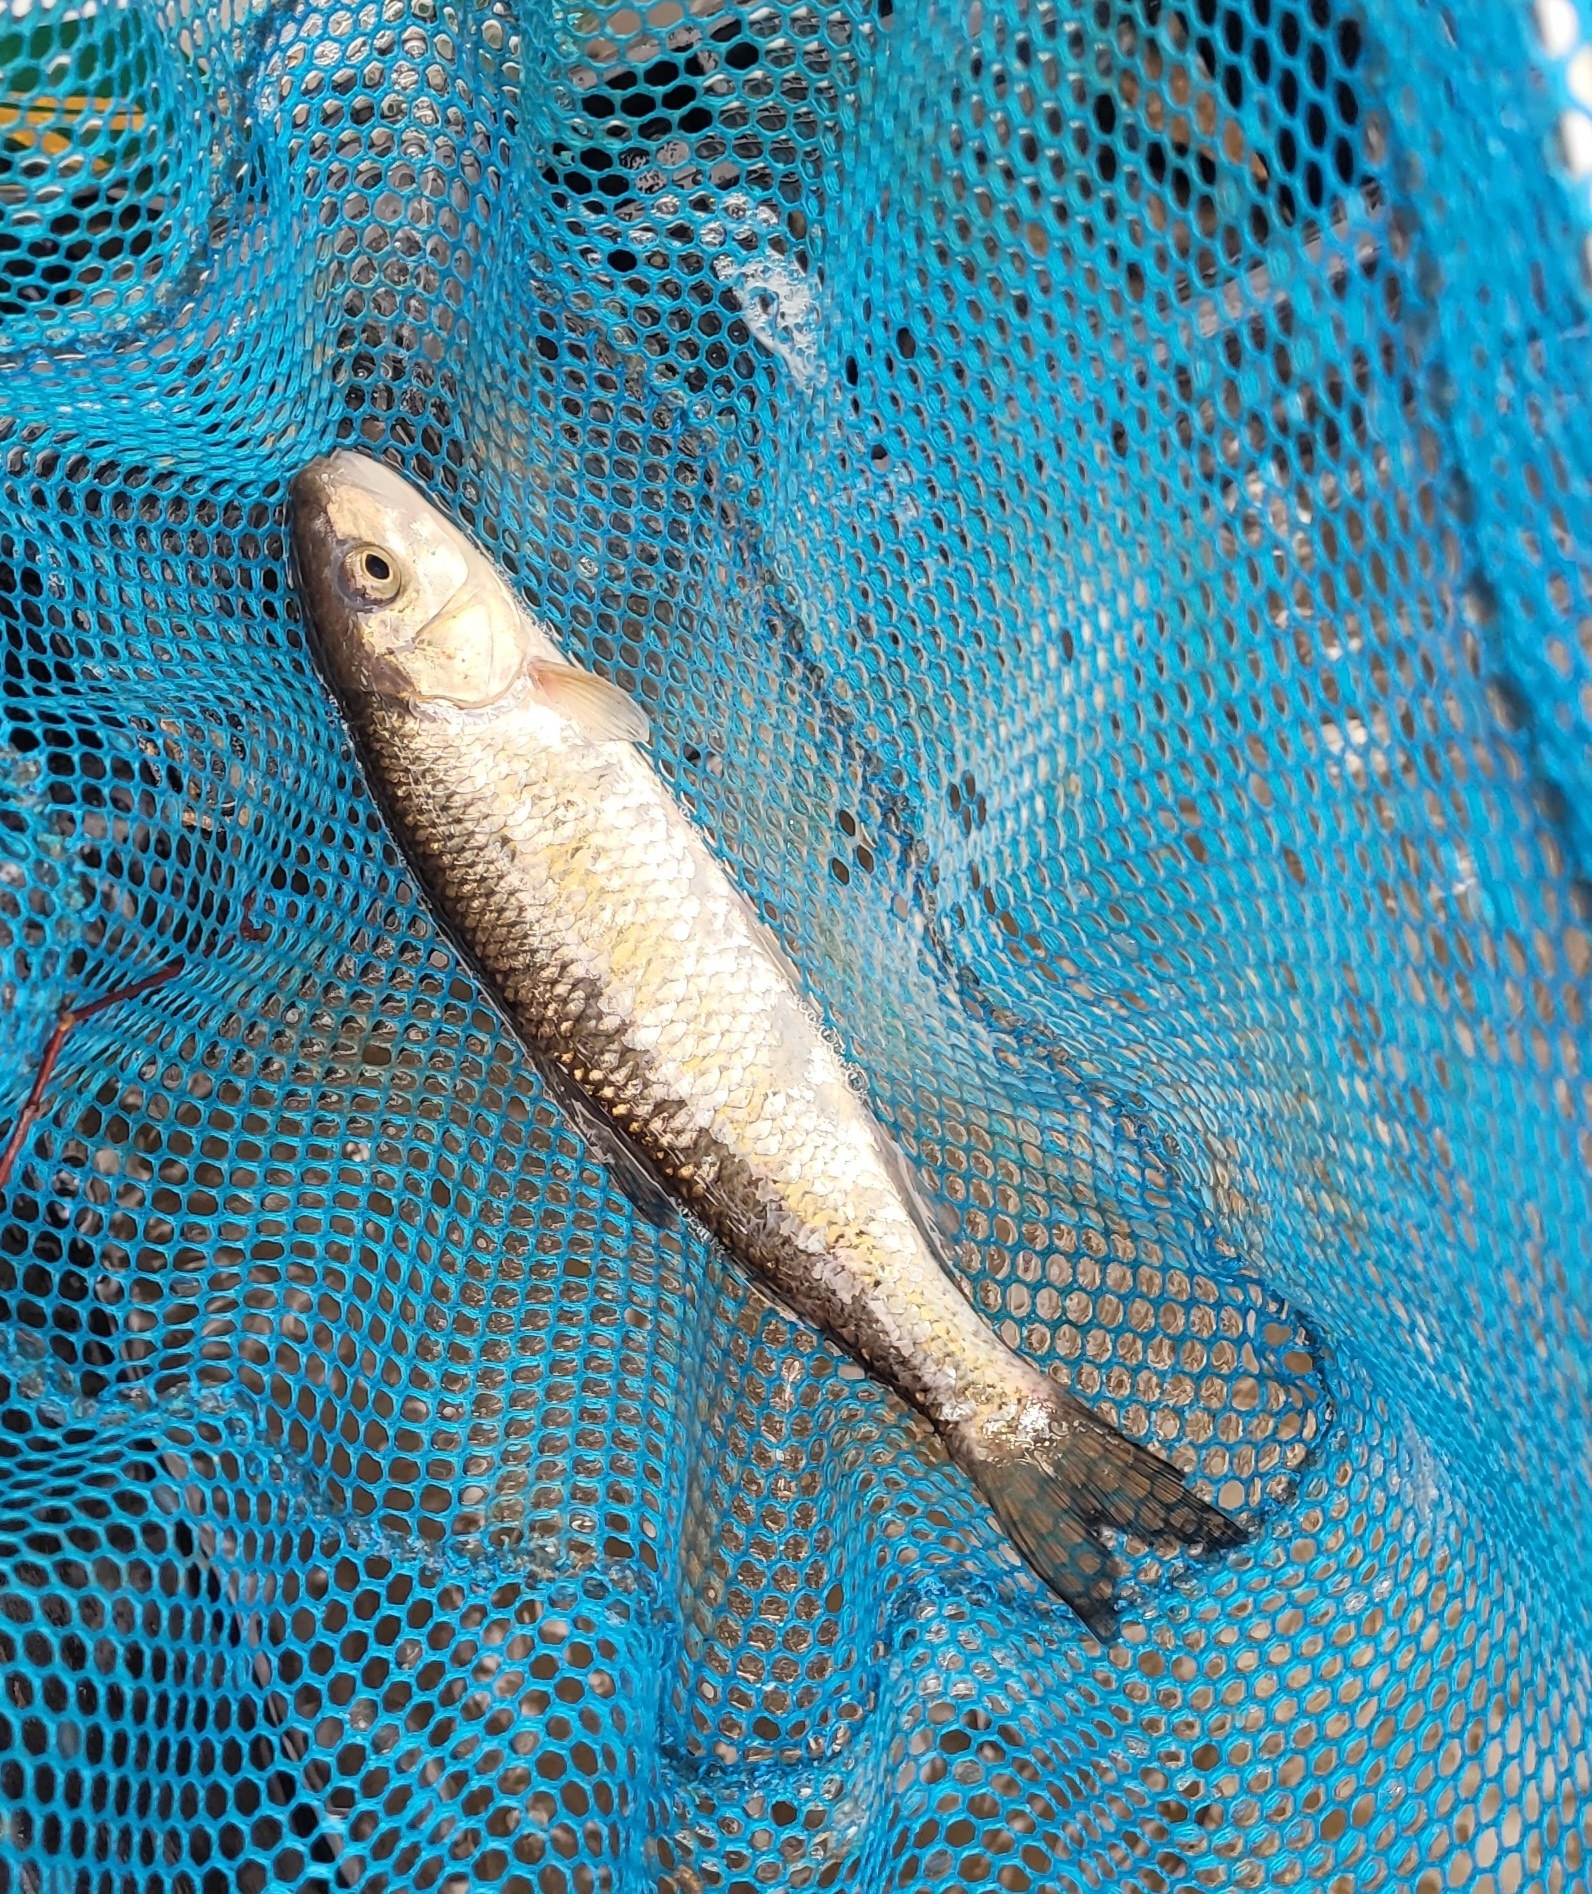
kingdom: Animalia
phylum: Chordata
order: Cypriniformes
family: Cyprinidae
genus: Semotilus
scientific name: Semotilus corporalis
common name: Fallfish
